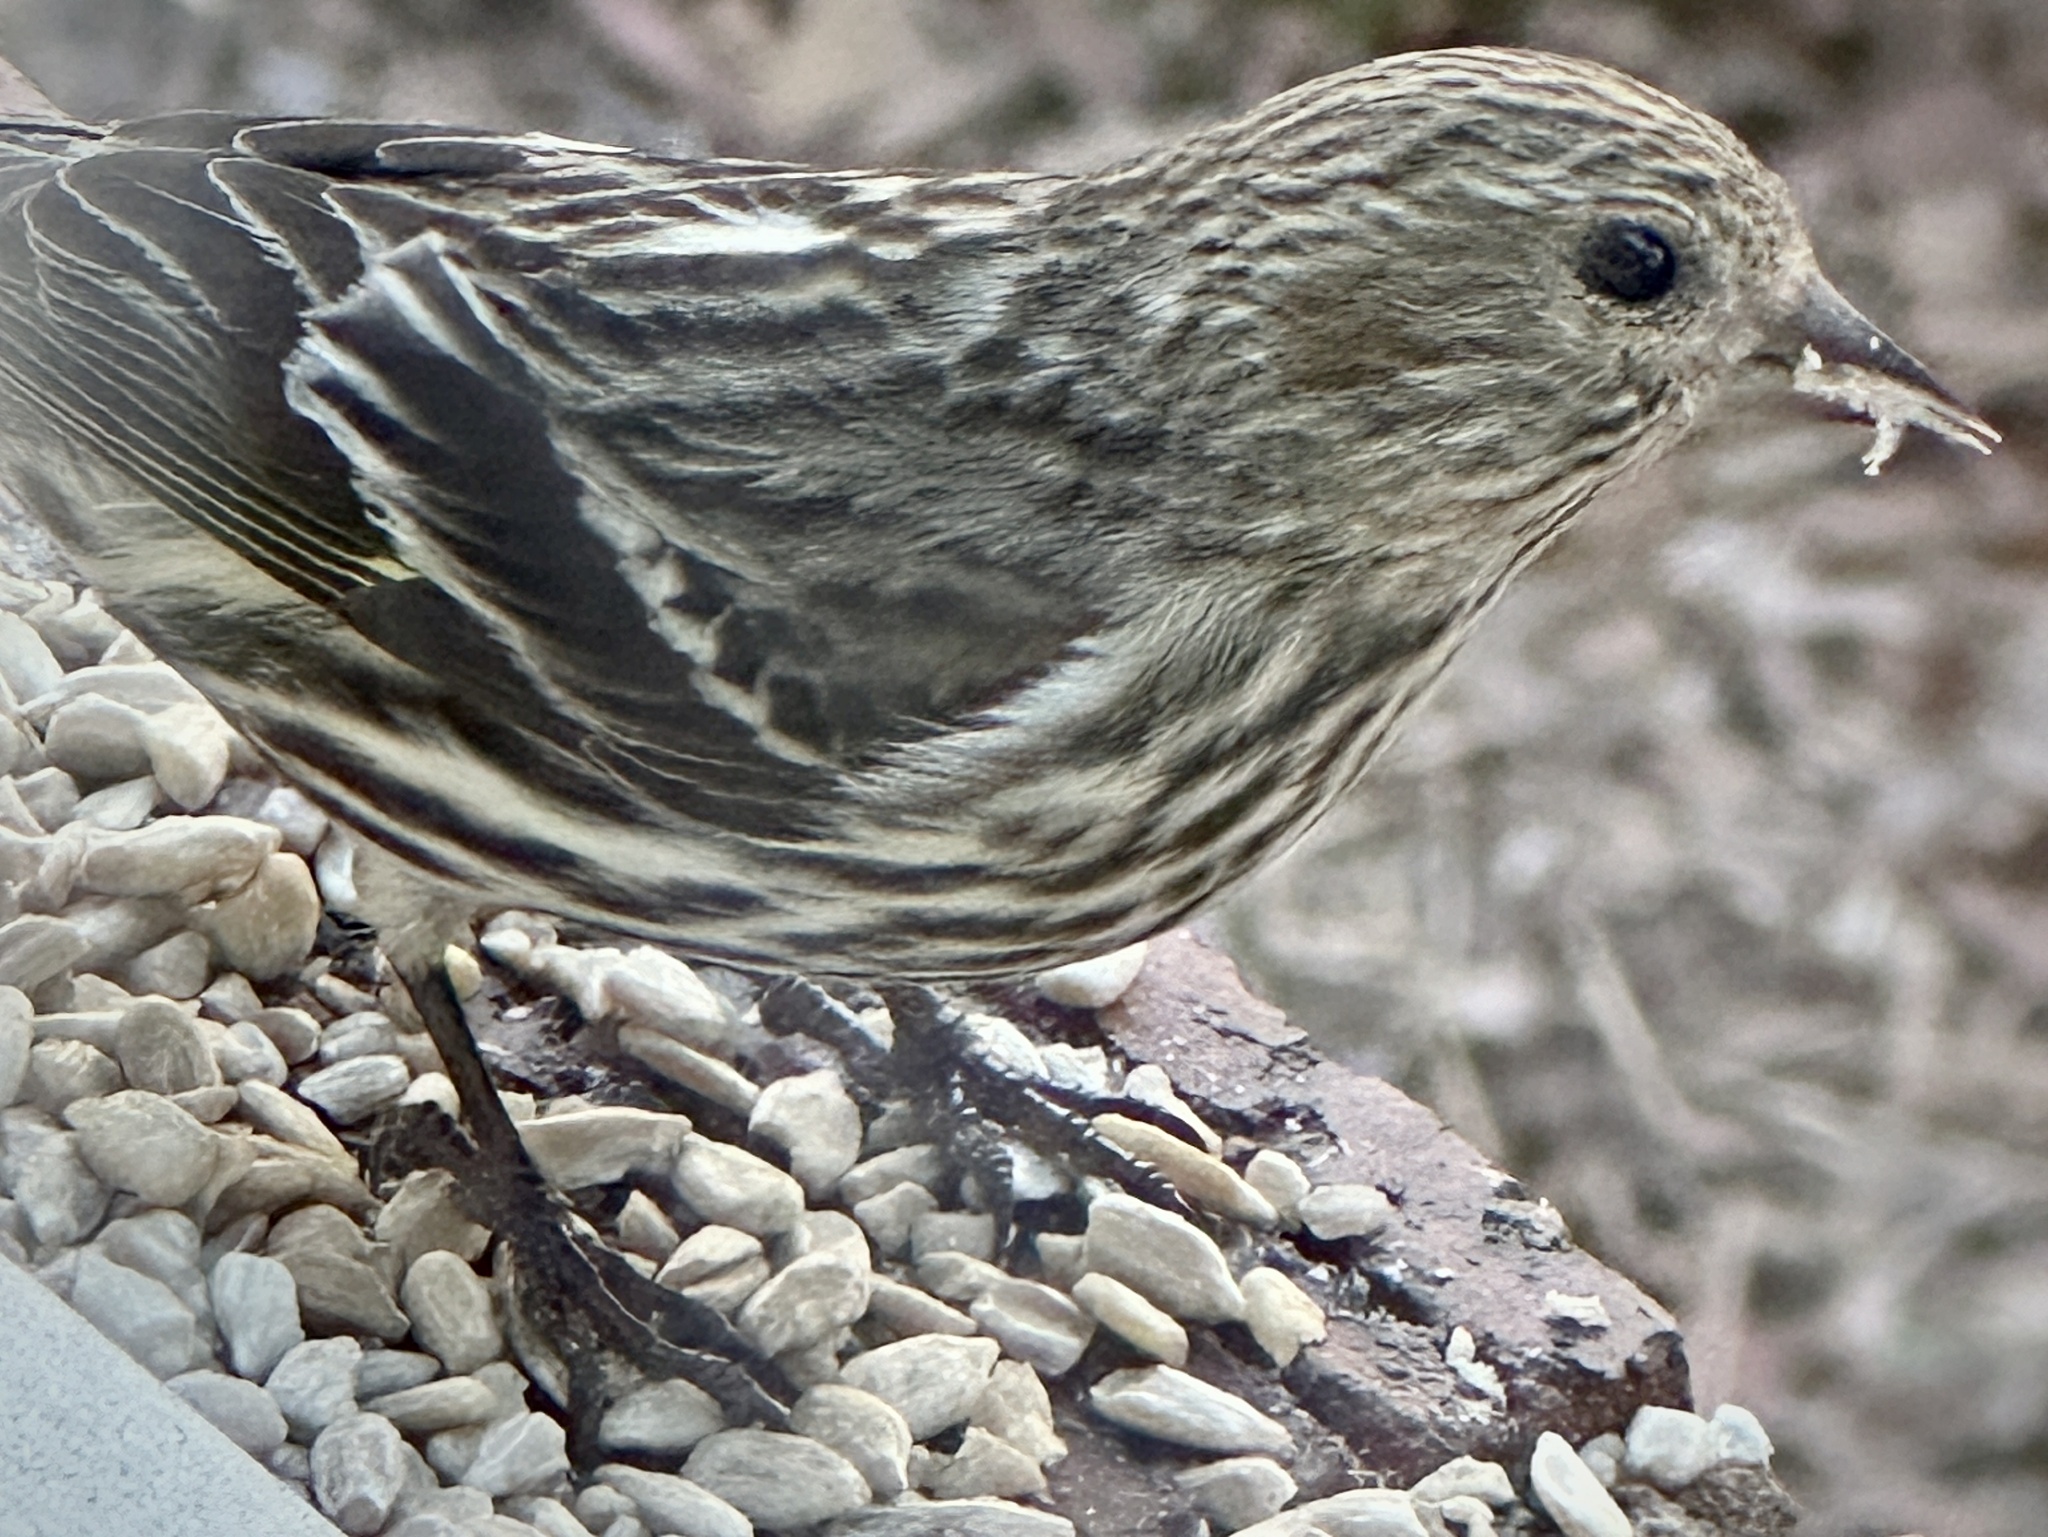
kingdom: Animalia
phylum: Chordata
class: Aves
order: Passeriformes
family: Fringillidae
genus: Spinus
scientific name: Spinus pinus
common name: Pine siskin
